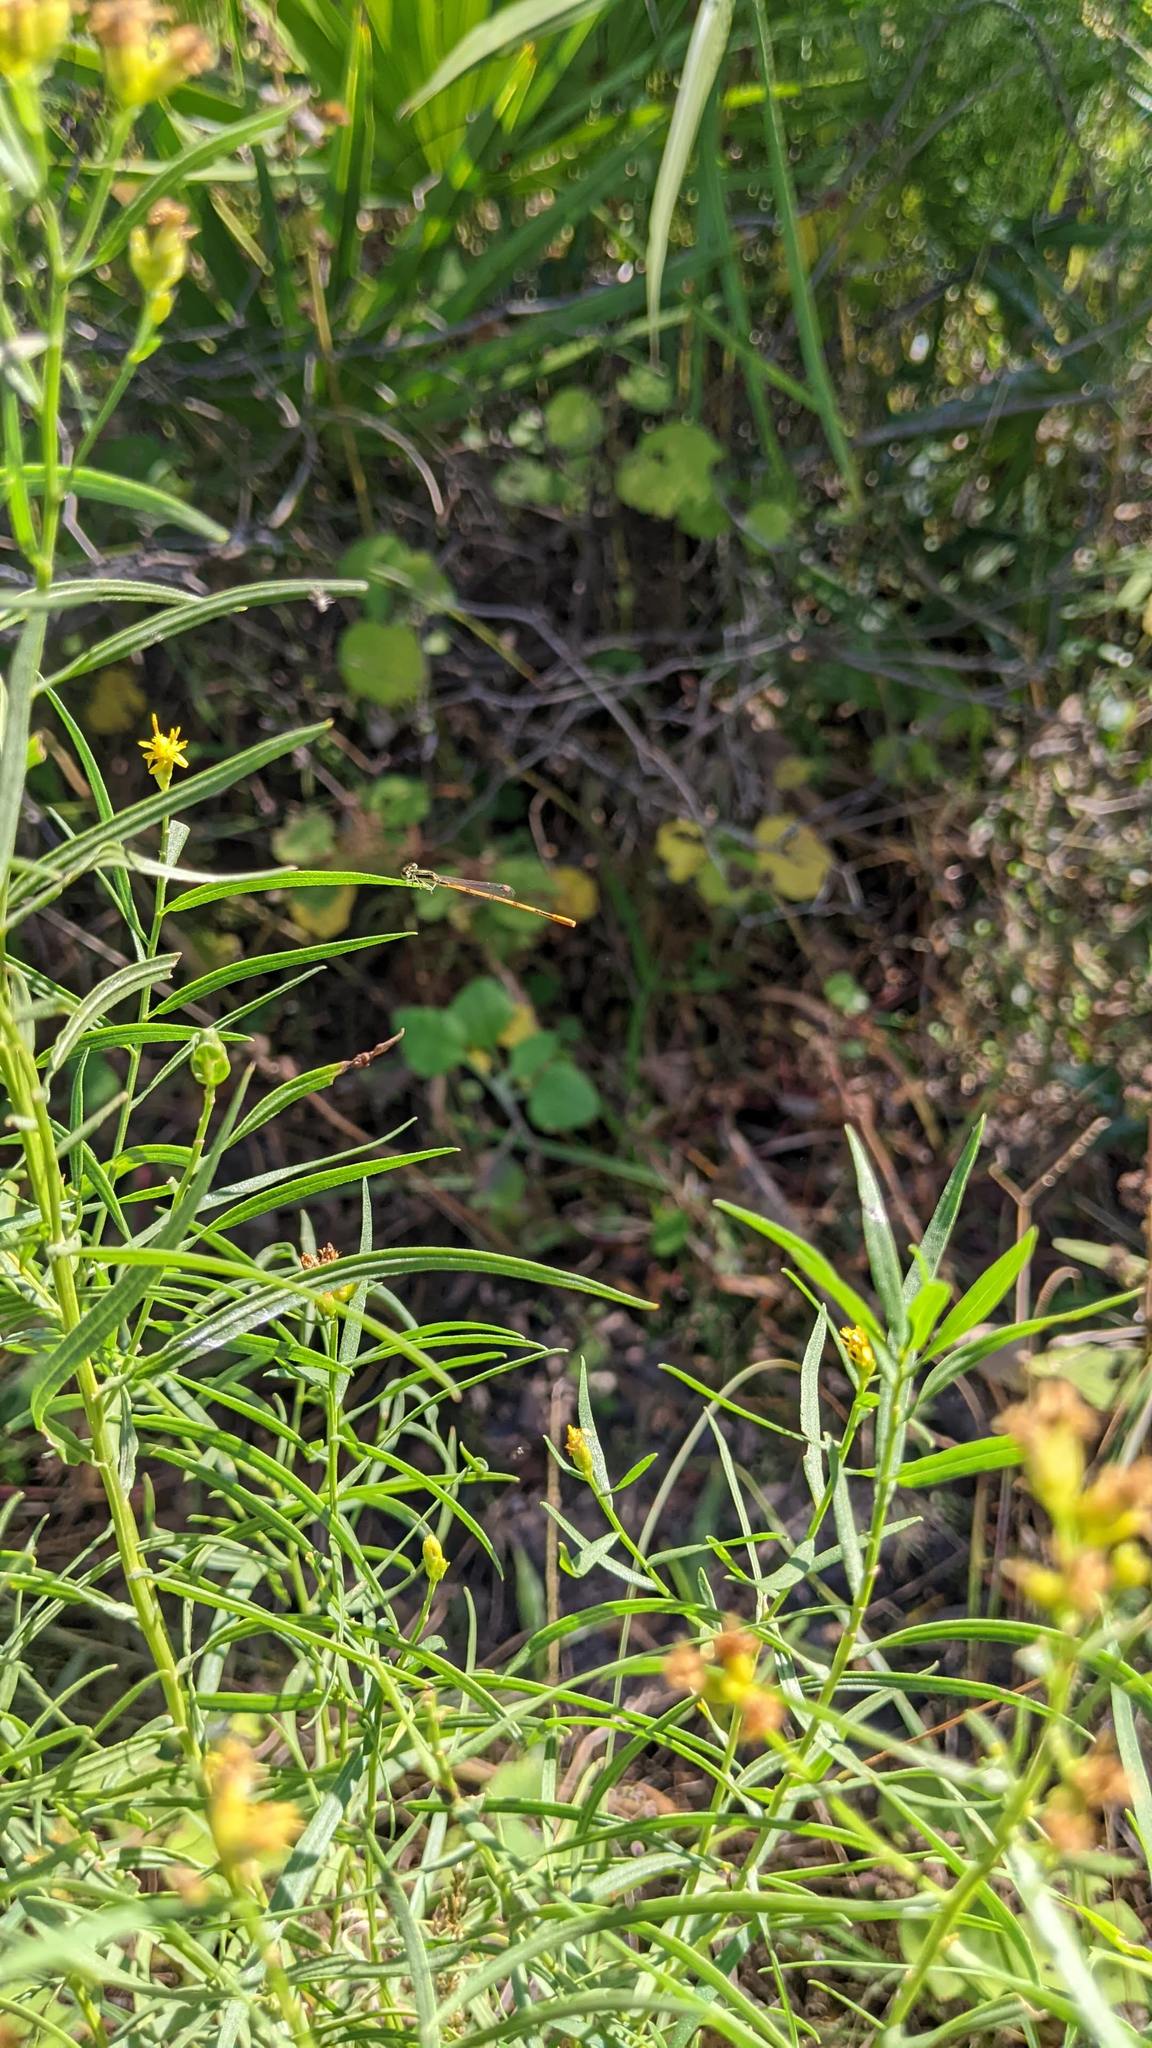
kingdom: Animalia
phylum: Arthropoda
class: Insecta
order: Odonata
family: Coenagrionidae
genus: Ischnura
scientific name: Ischnura hastata
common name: Citrine forktail
